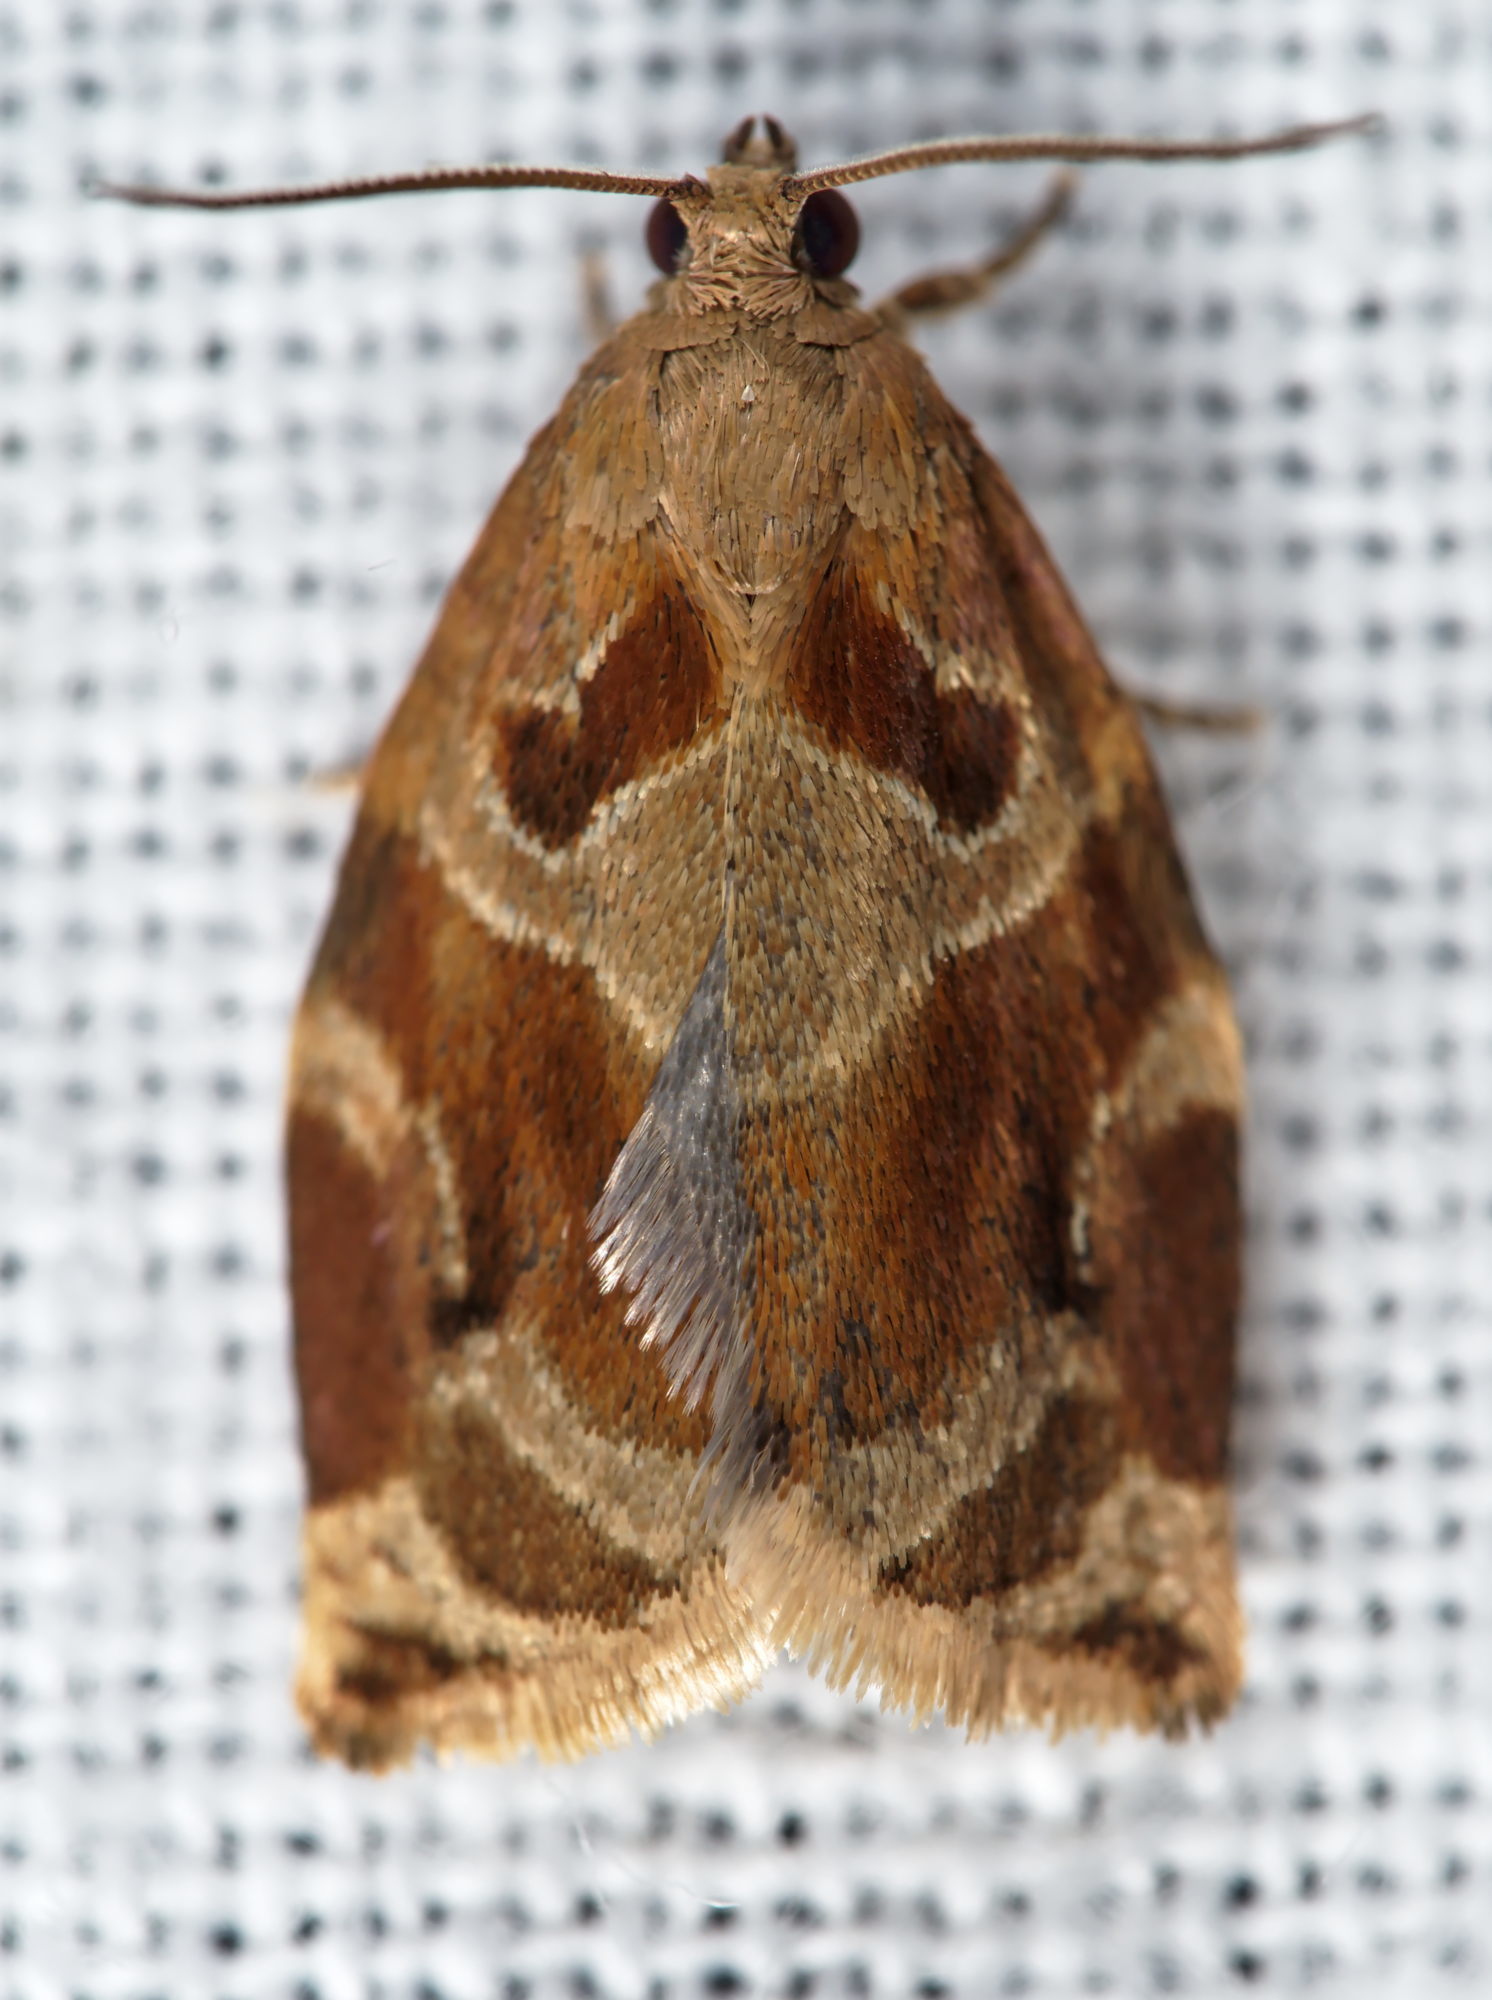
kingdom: Animalia
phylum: Arthropoda
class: Insecta
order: Lepidoptera
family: Tortricidae
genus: Archips
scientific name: Archips xylosteana
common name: Variegated golden tortrix
